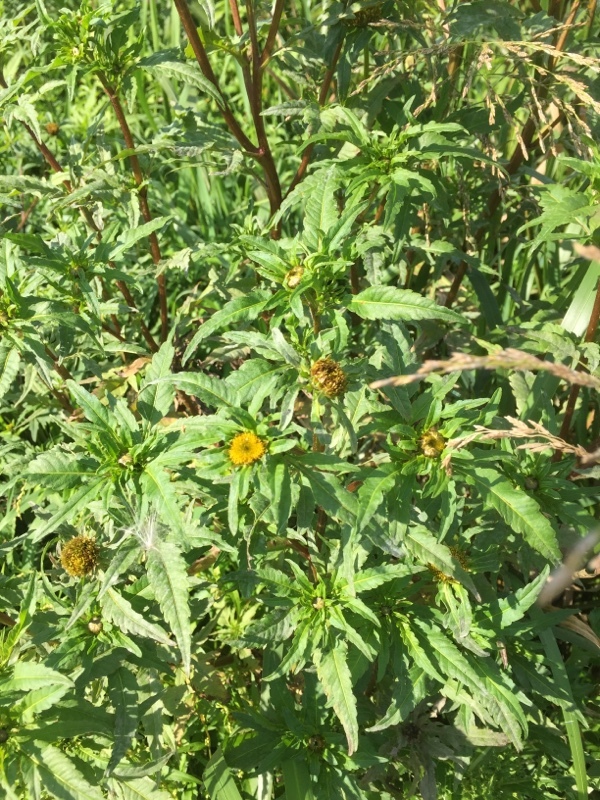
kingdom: Plantae
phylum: Tracheophyta
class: Magnoliopsida
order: Asterales
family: Asteraceae
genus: Bidens
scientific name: Bidens cernua
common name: Nodding bur-marigold
